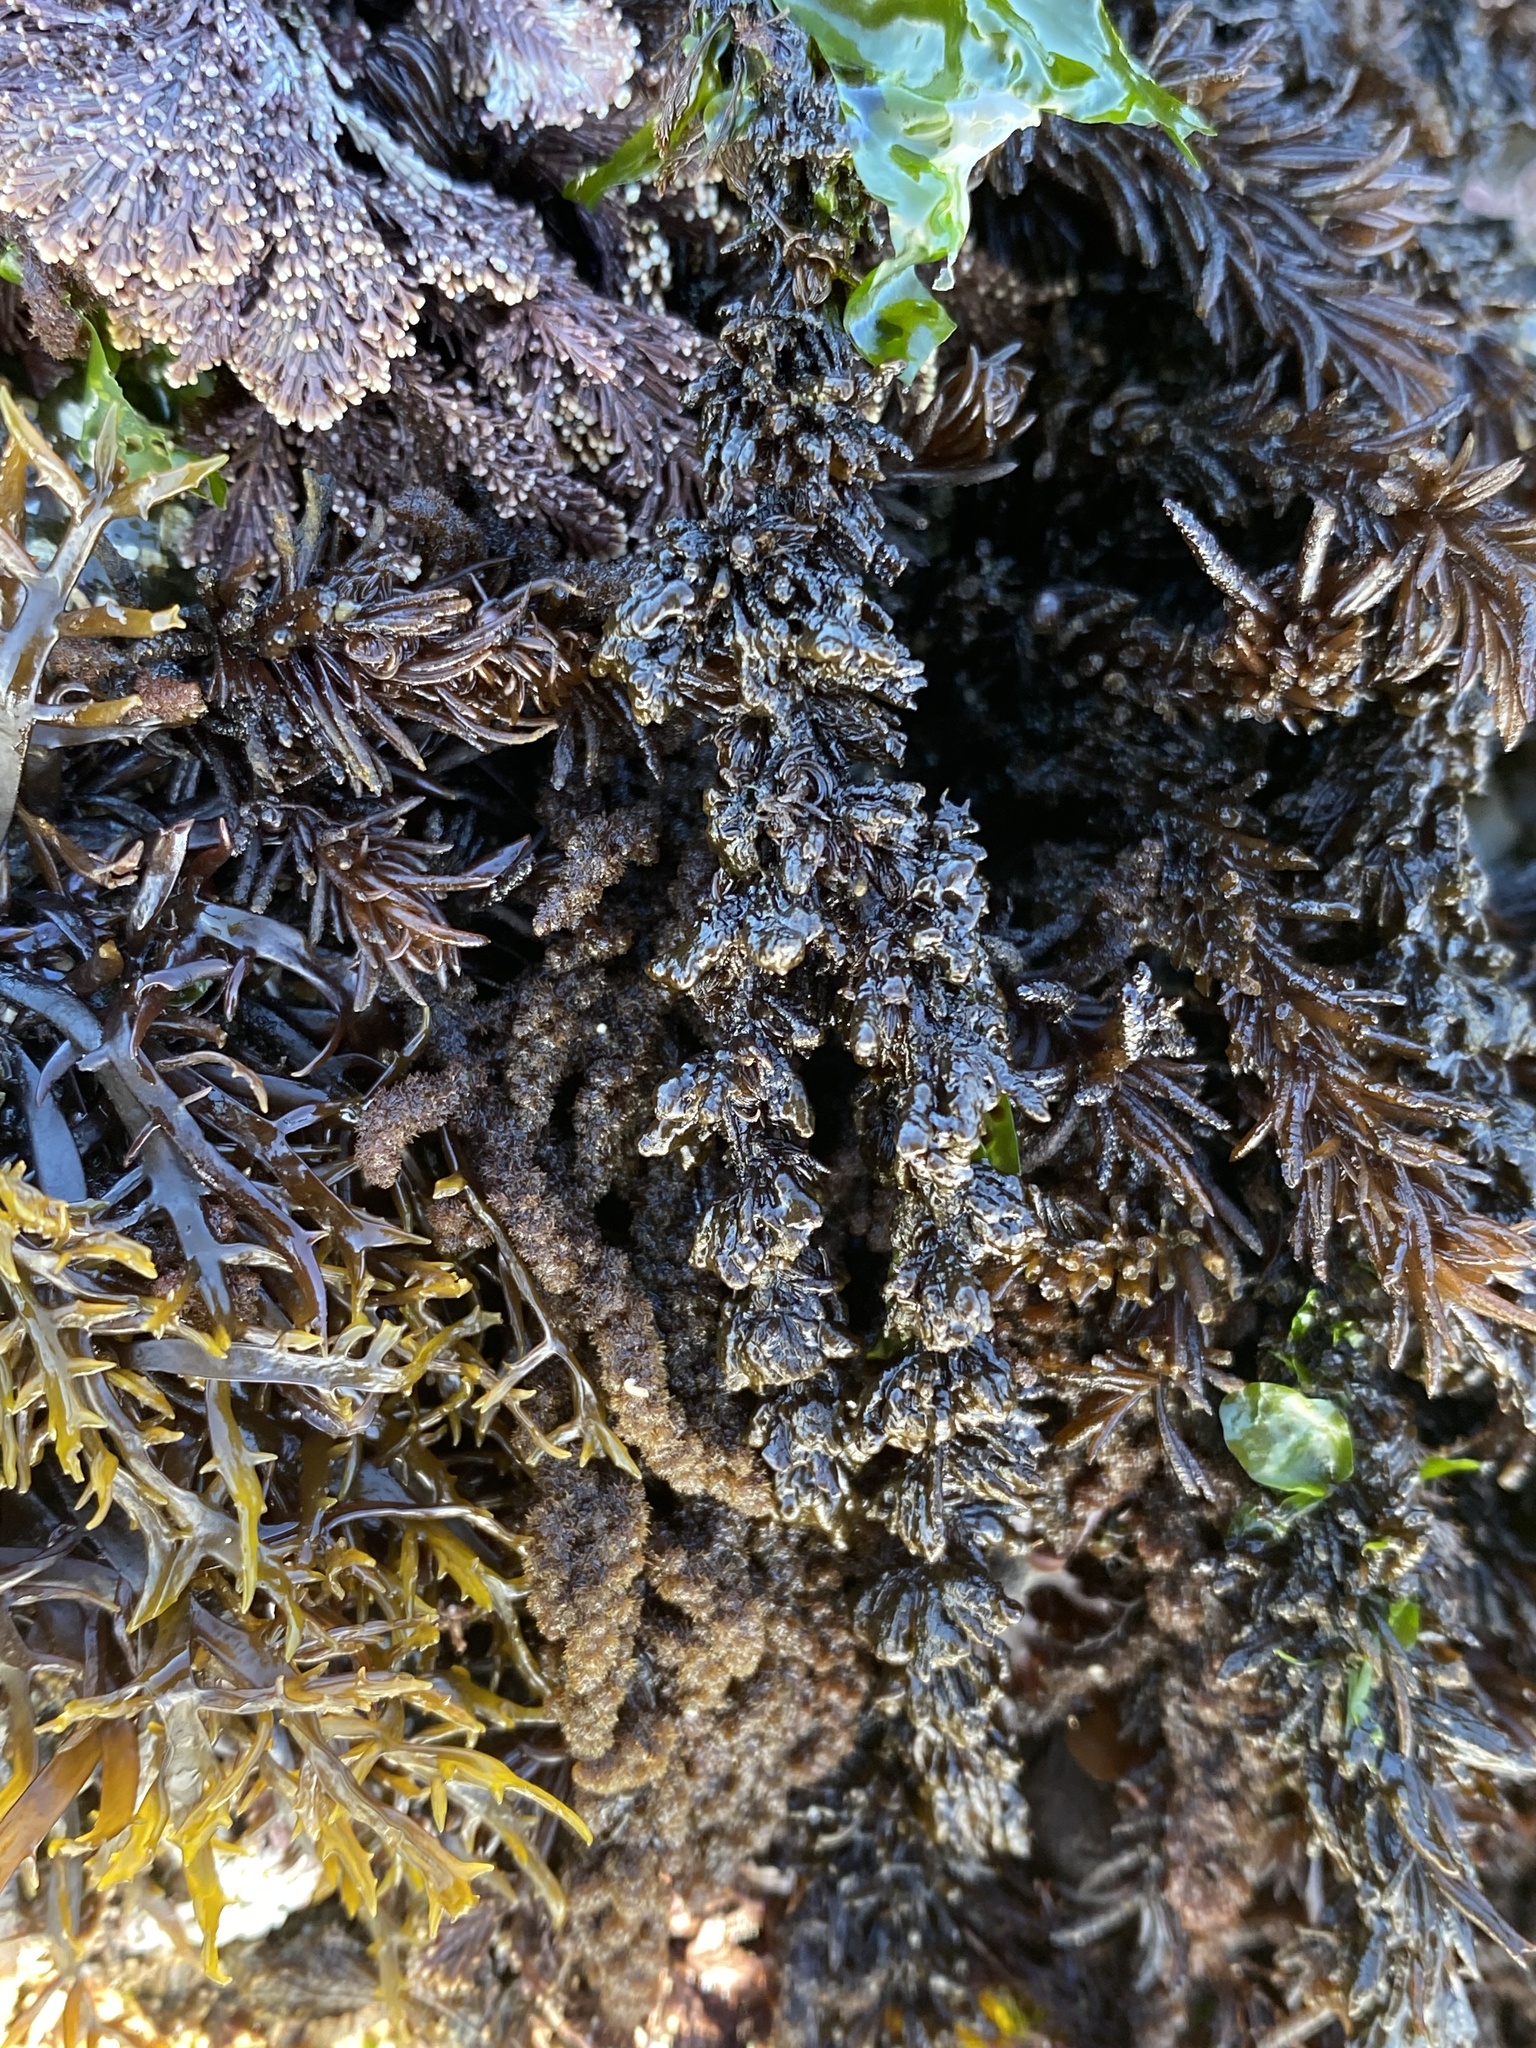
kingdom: Plantae
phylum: Rhodophyta
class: Florideophyceae
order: Ceramiales
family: Rhodomelaceae
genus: Neorhodomela
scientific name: Neorhodomela larix
